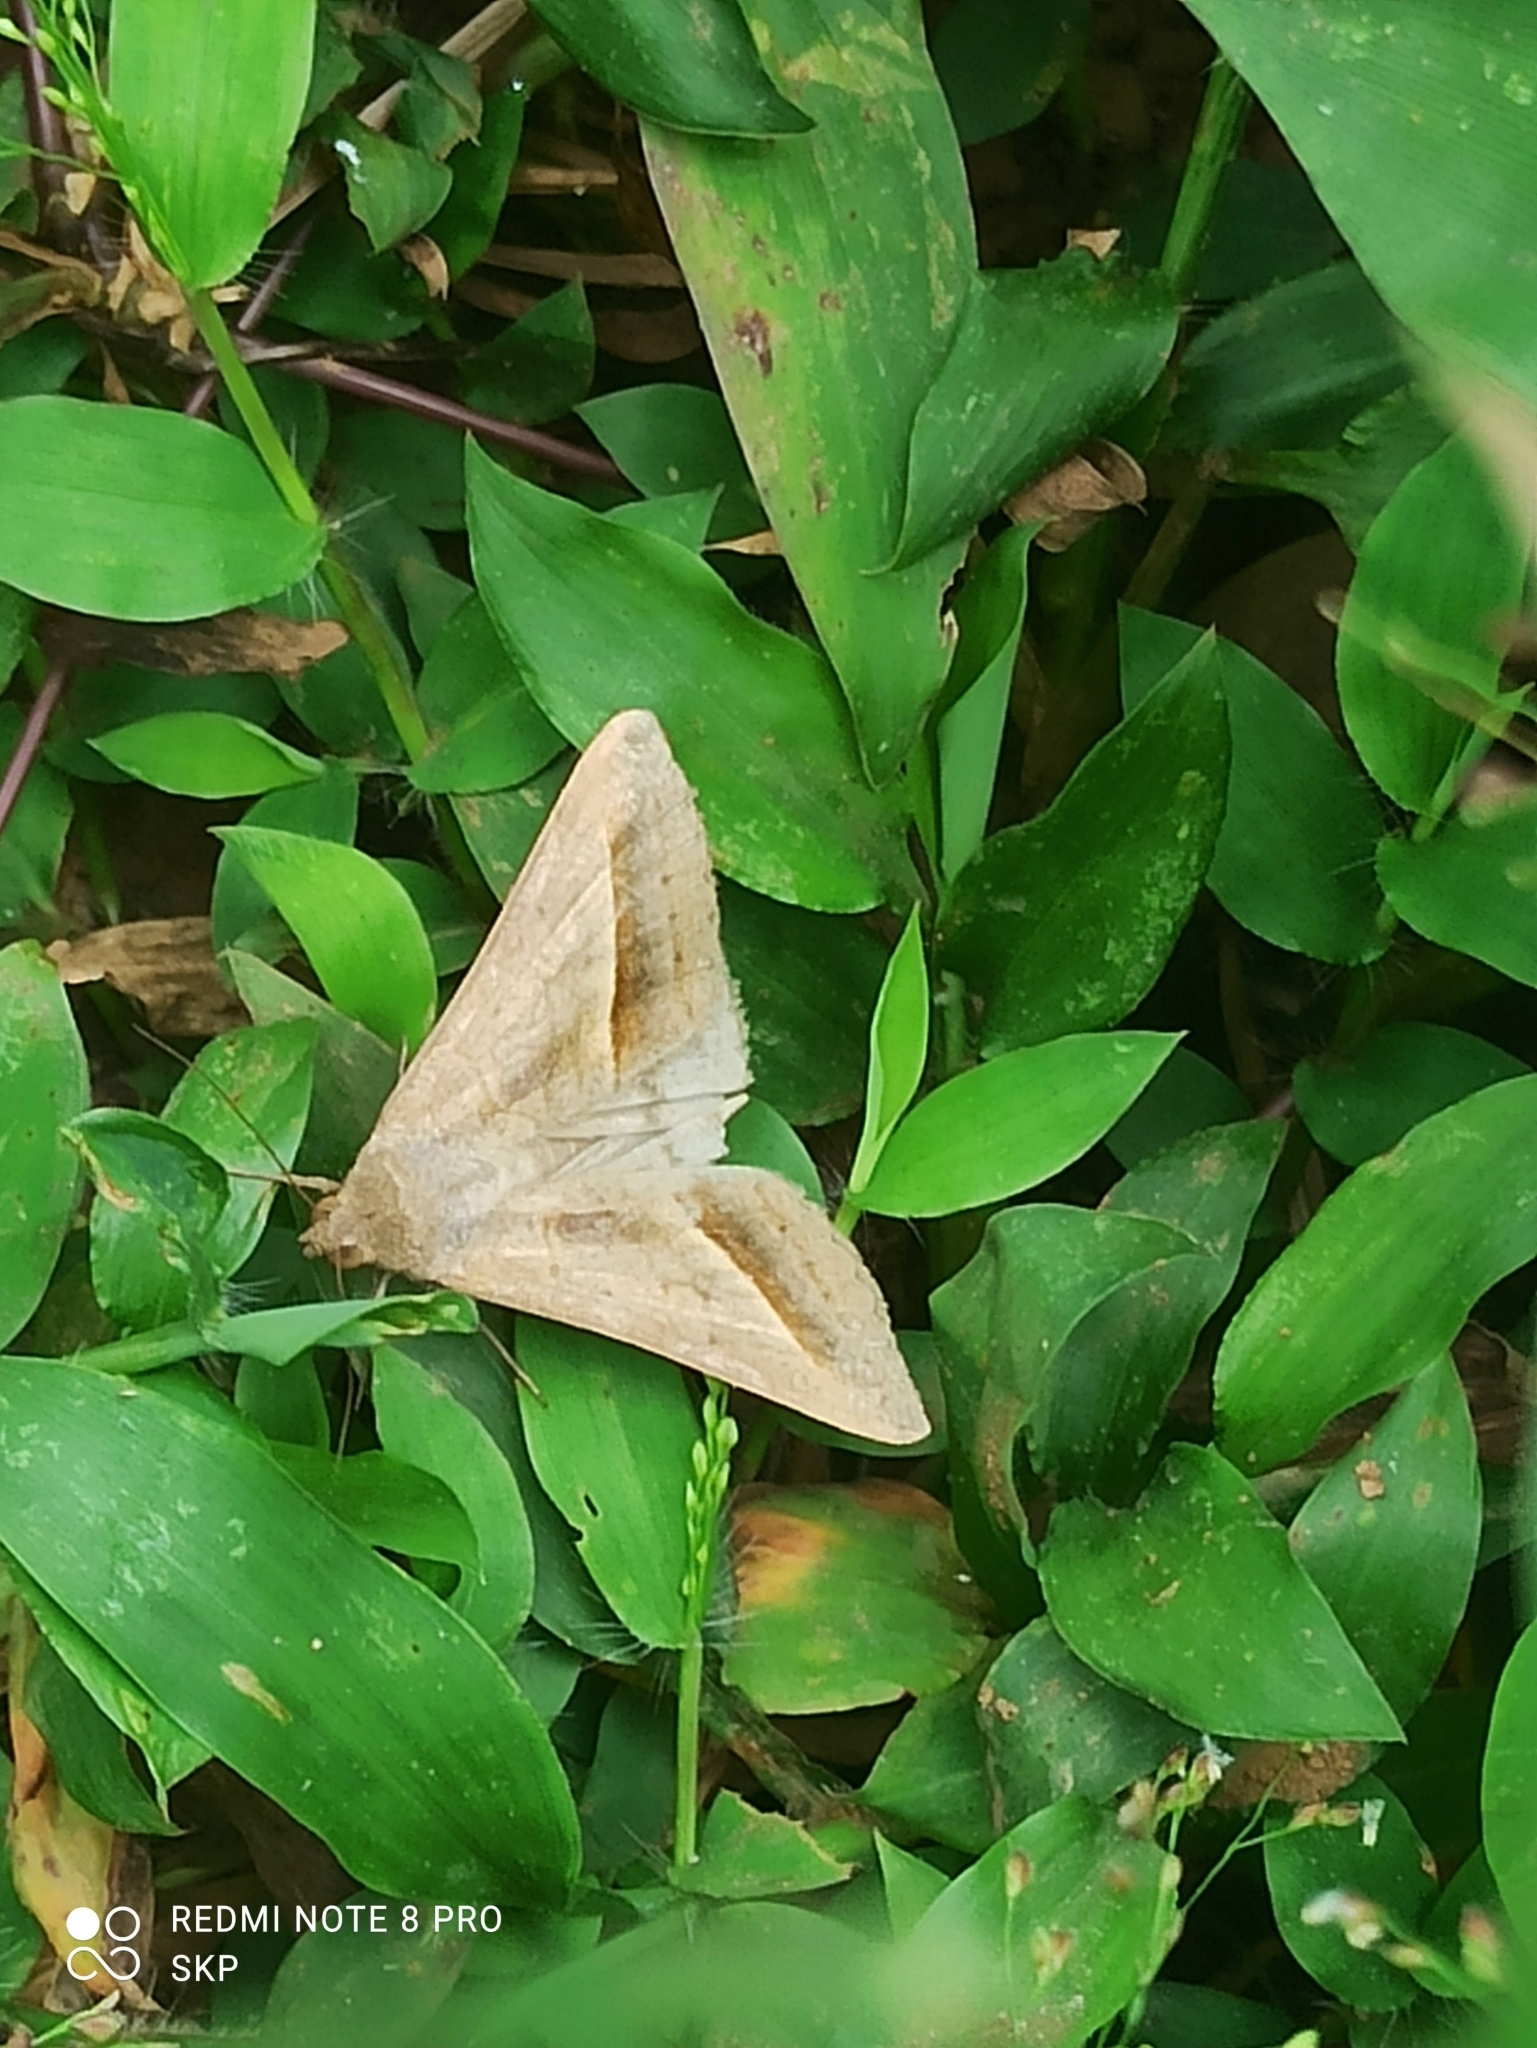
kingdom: Animalia
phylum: Arthropoda
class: Insecta
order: Lepidoptera
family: Erebidae
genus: Mocis
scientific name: Mocis frugalis
